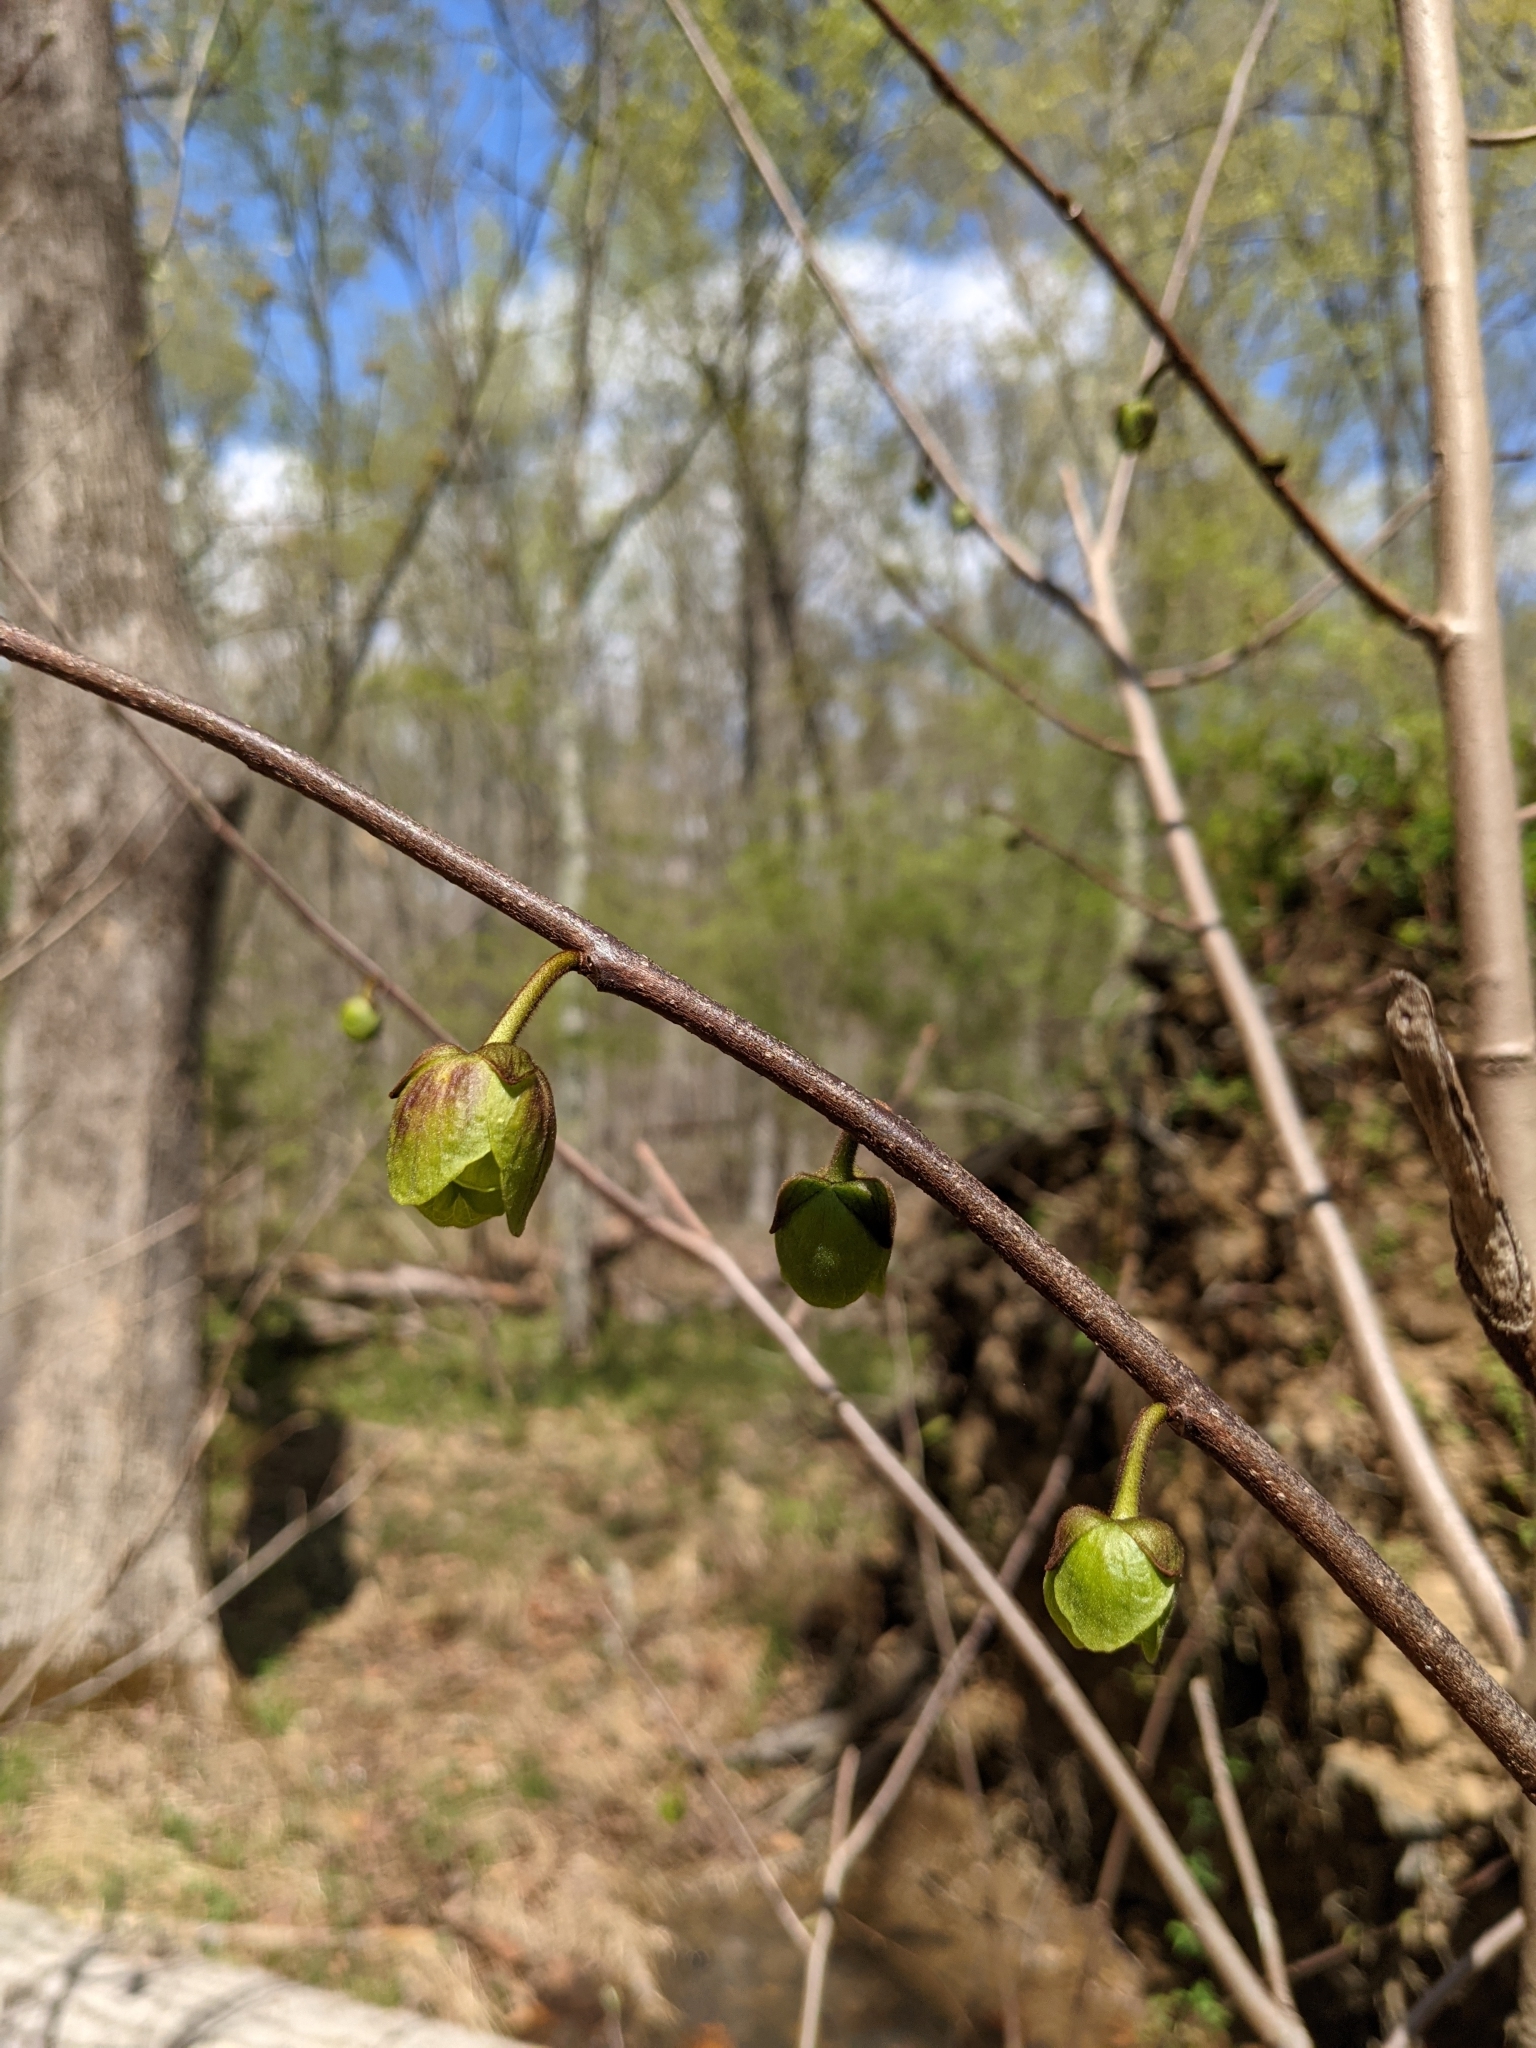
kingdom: Plantae
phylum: Tracheophyta
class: Magnoliopsida
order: Magnoliales
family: Annonaceae
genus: Asimina
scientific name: Asimina triloba
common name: Dog-banana
